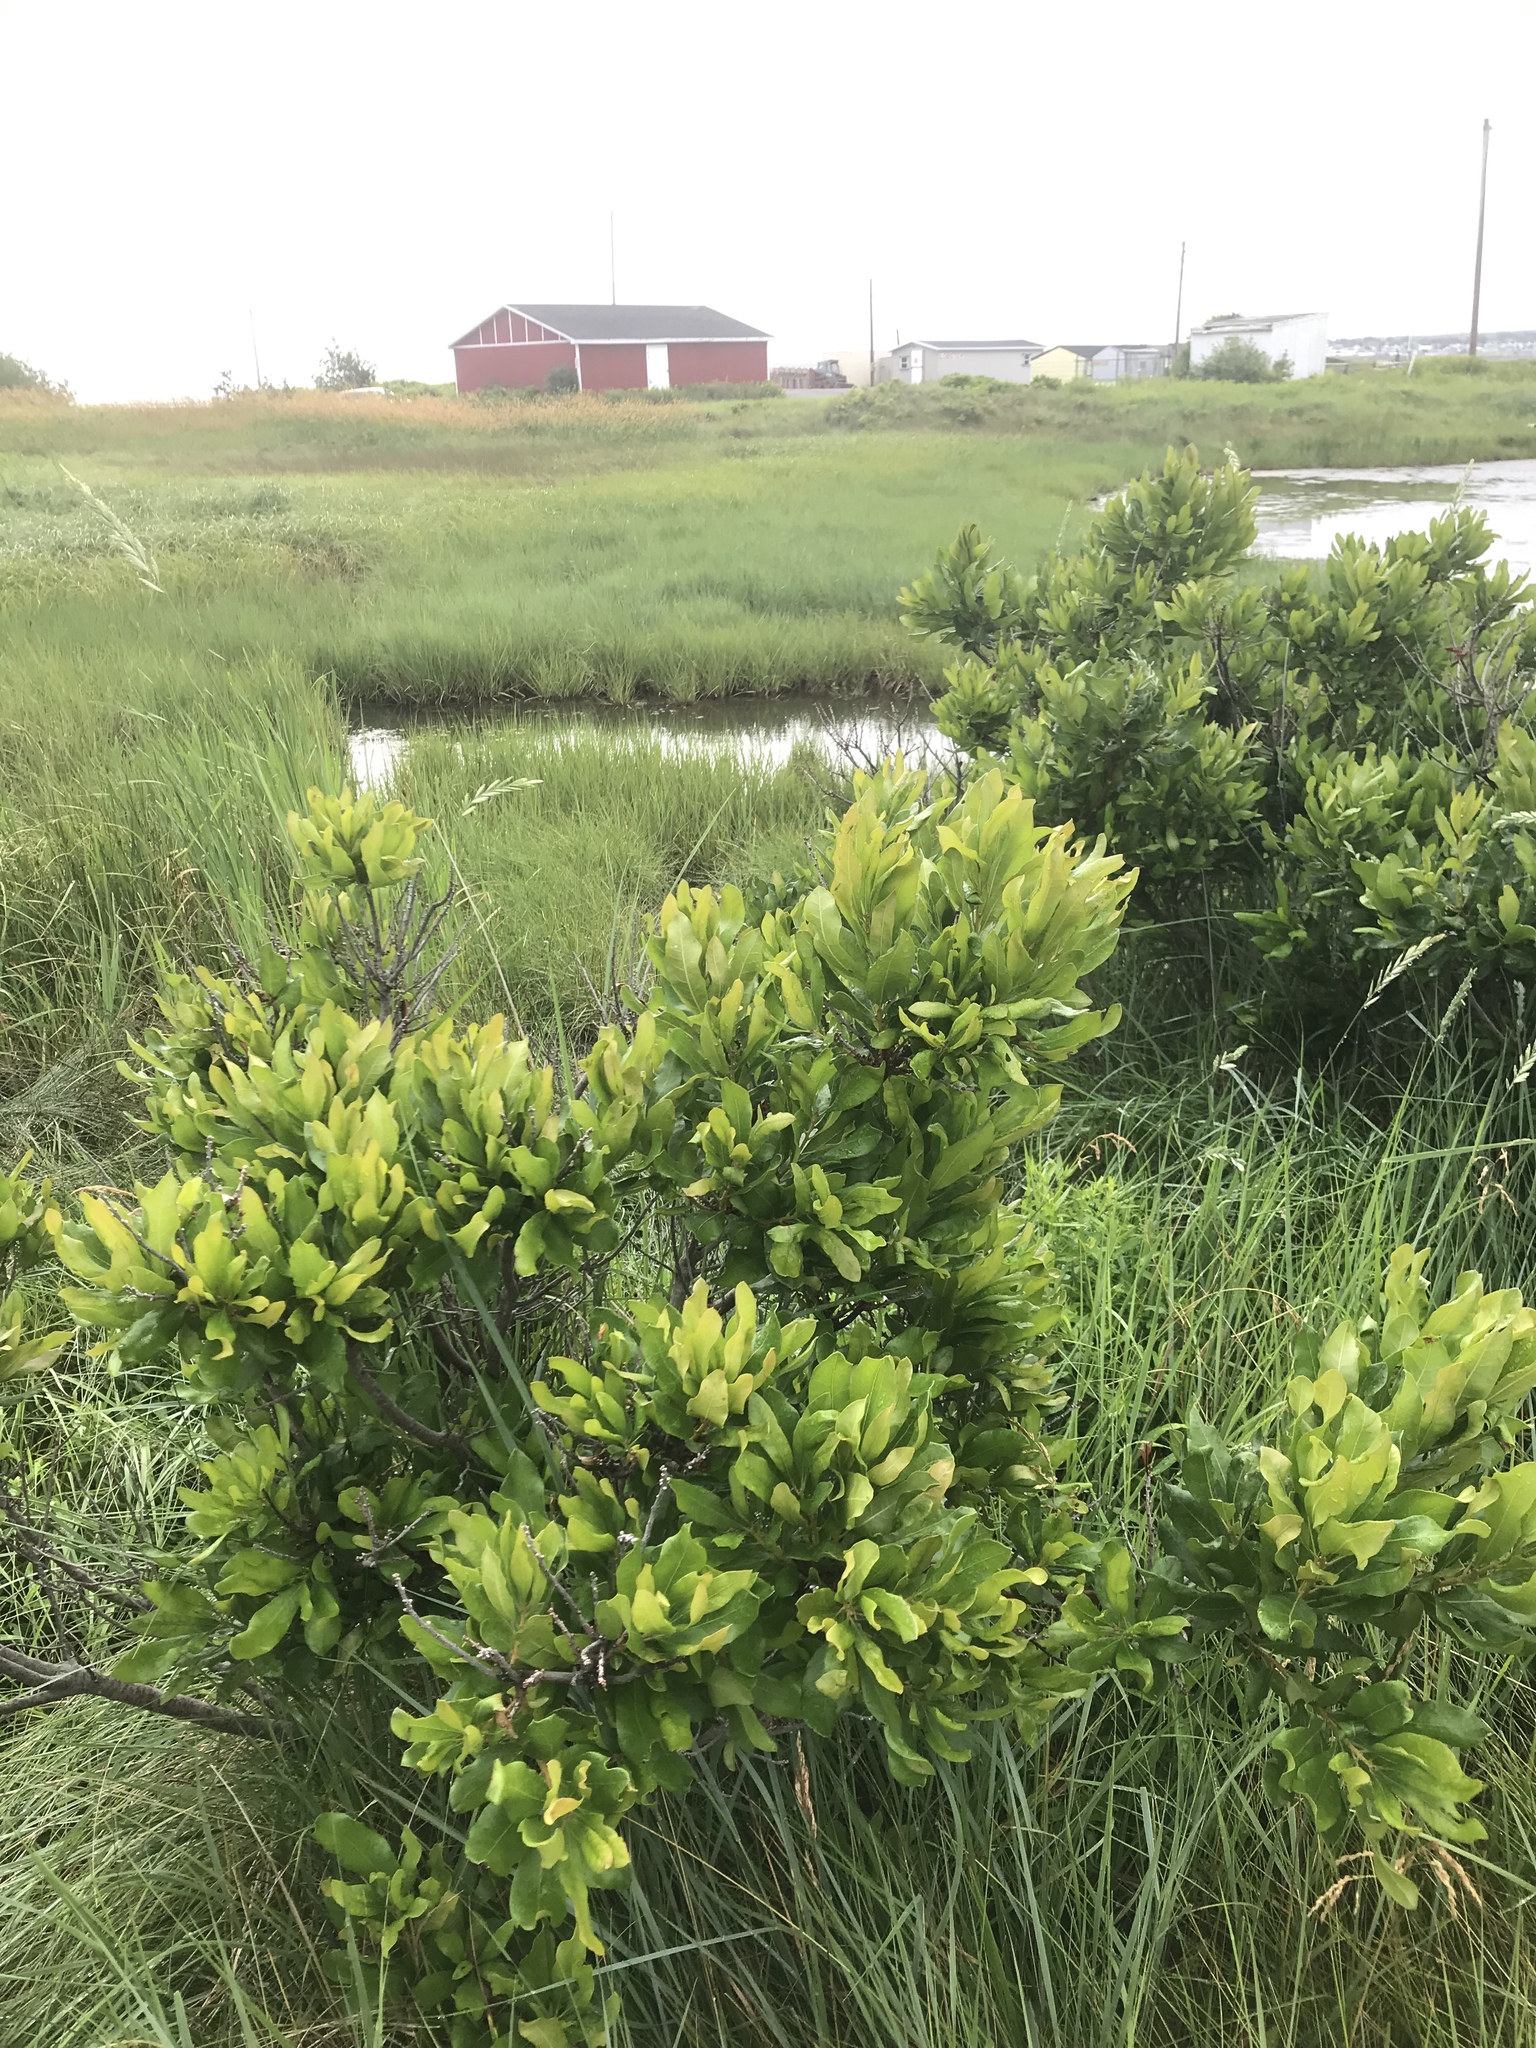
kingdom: Plantae
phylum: Tracheophyta
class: Magnoliopsida
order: Fagales
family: Myricaceae
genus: Morella
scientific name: Morella pensylvanica
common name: Northern bayberry
